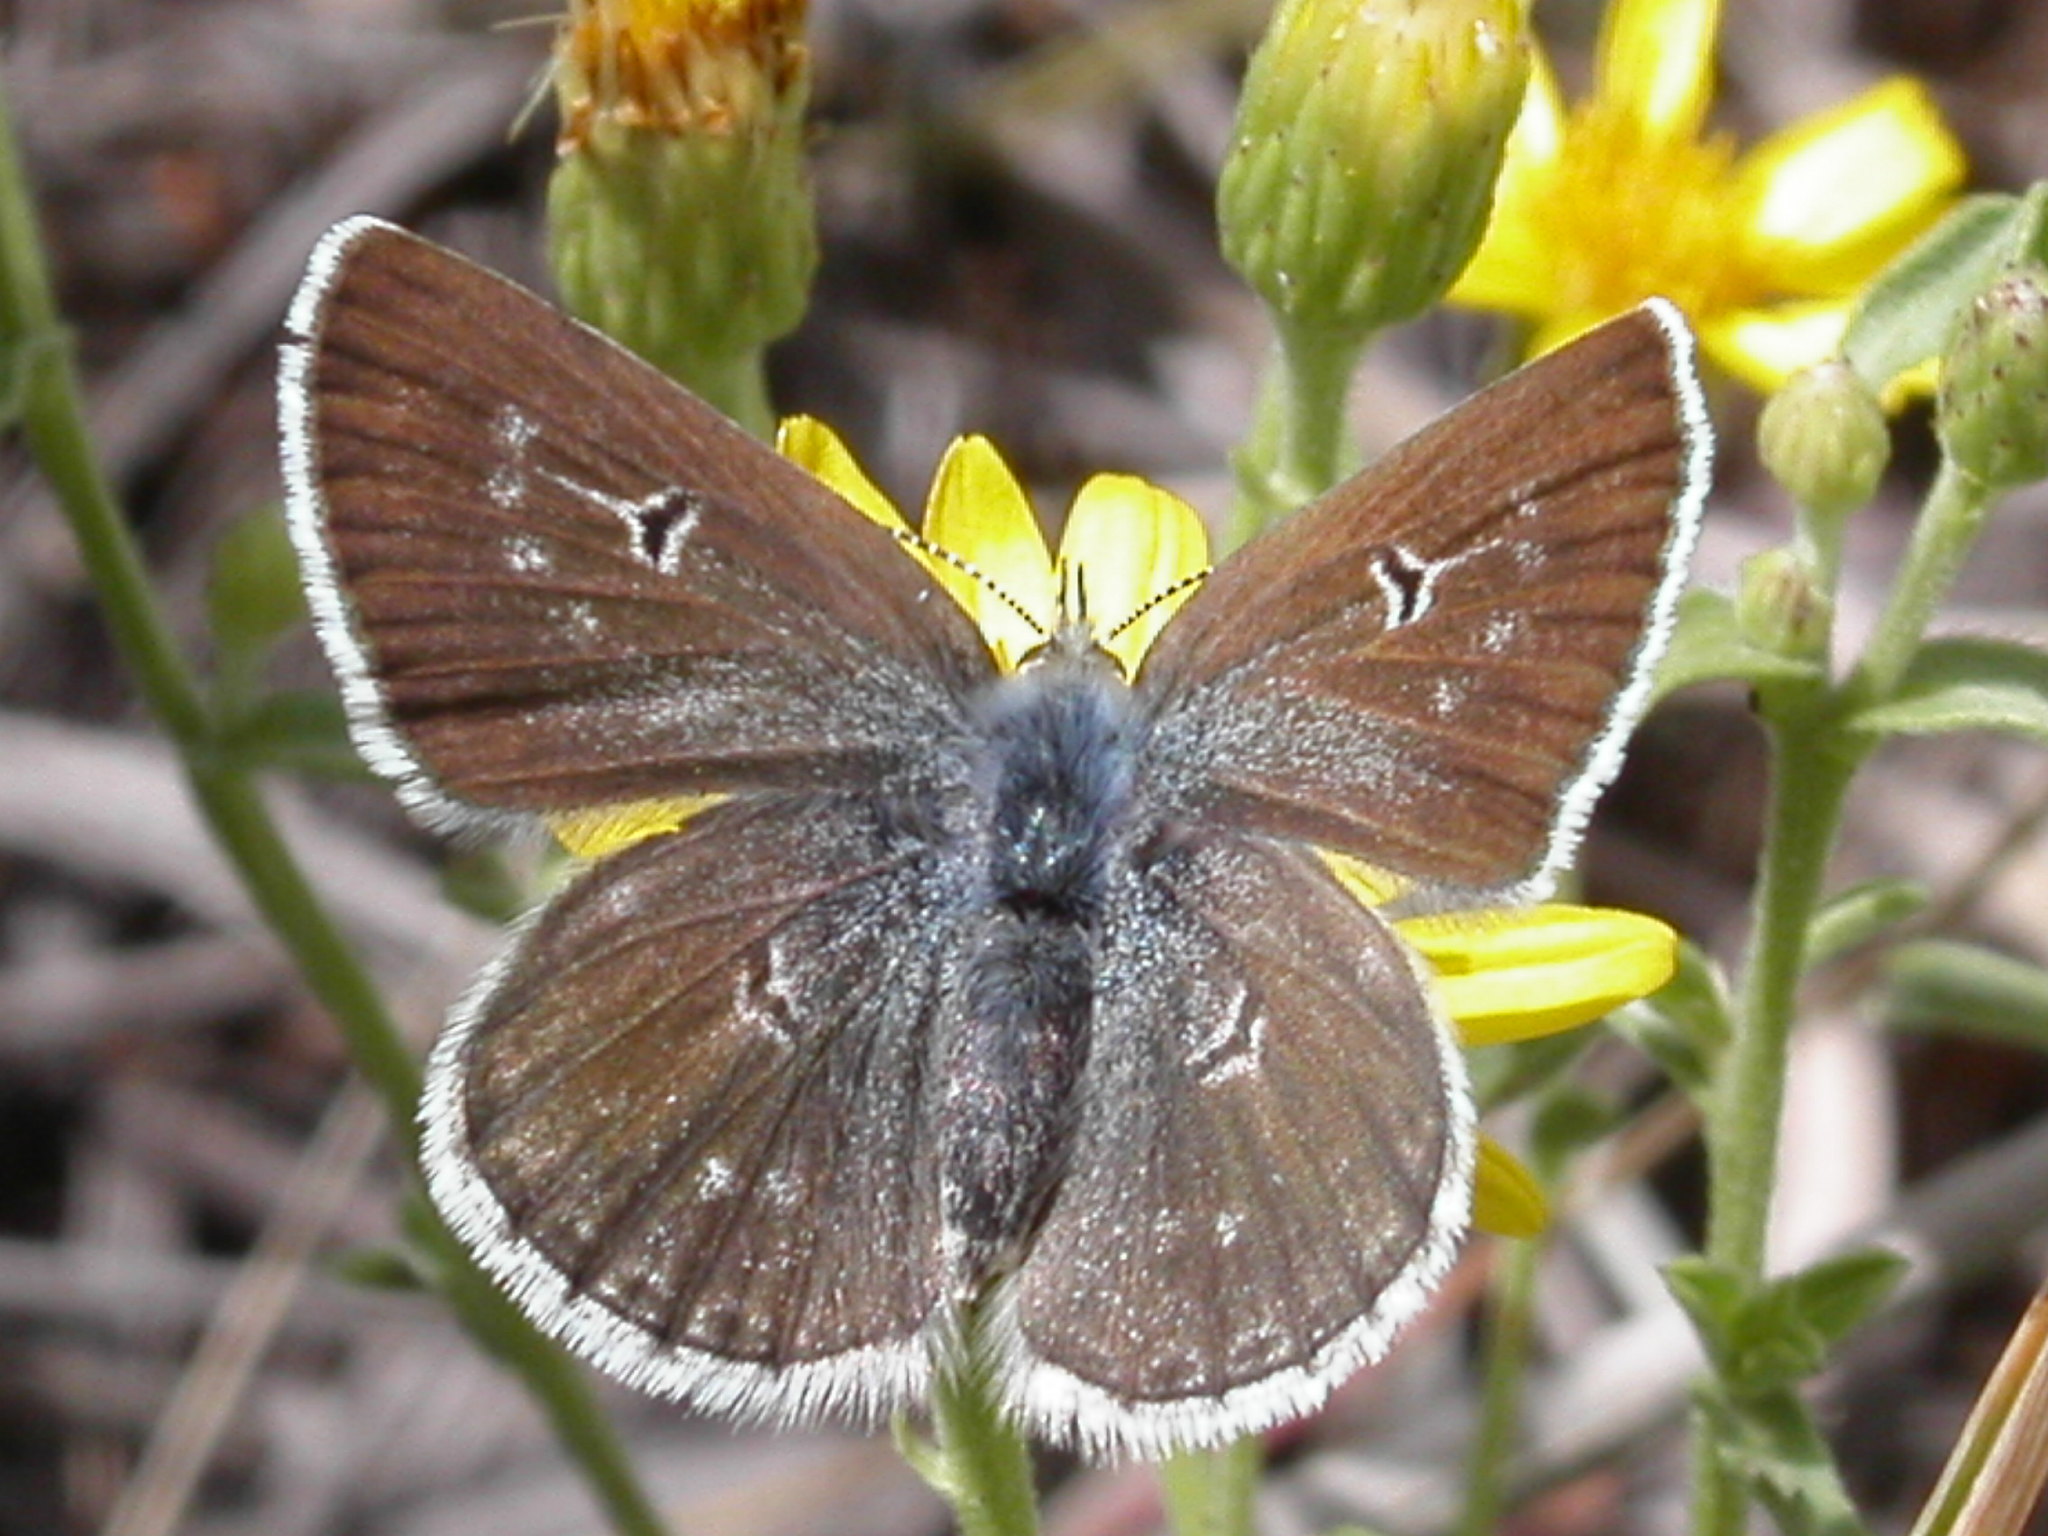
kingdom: Animalia
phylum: Arthropoda
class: Insecta
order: Lepidoptera
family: Lycaenidae
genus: Agriades
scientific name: Agriades glandon
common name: Glandon blue
